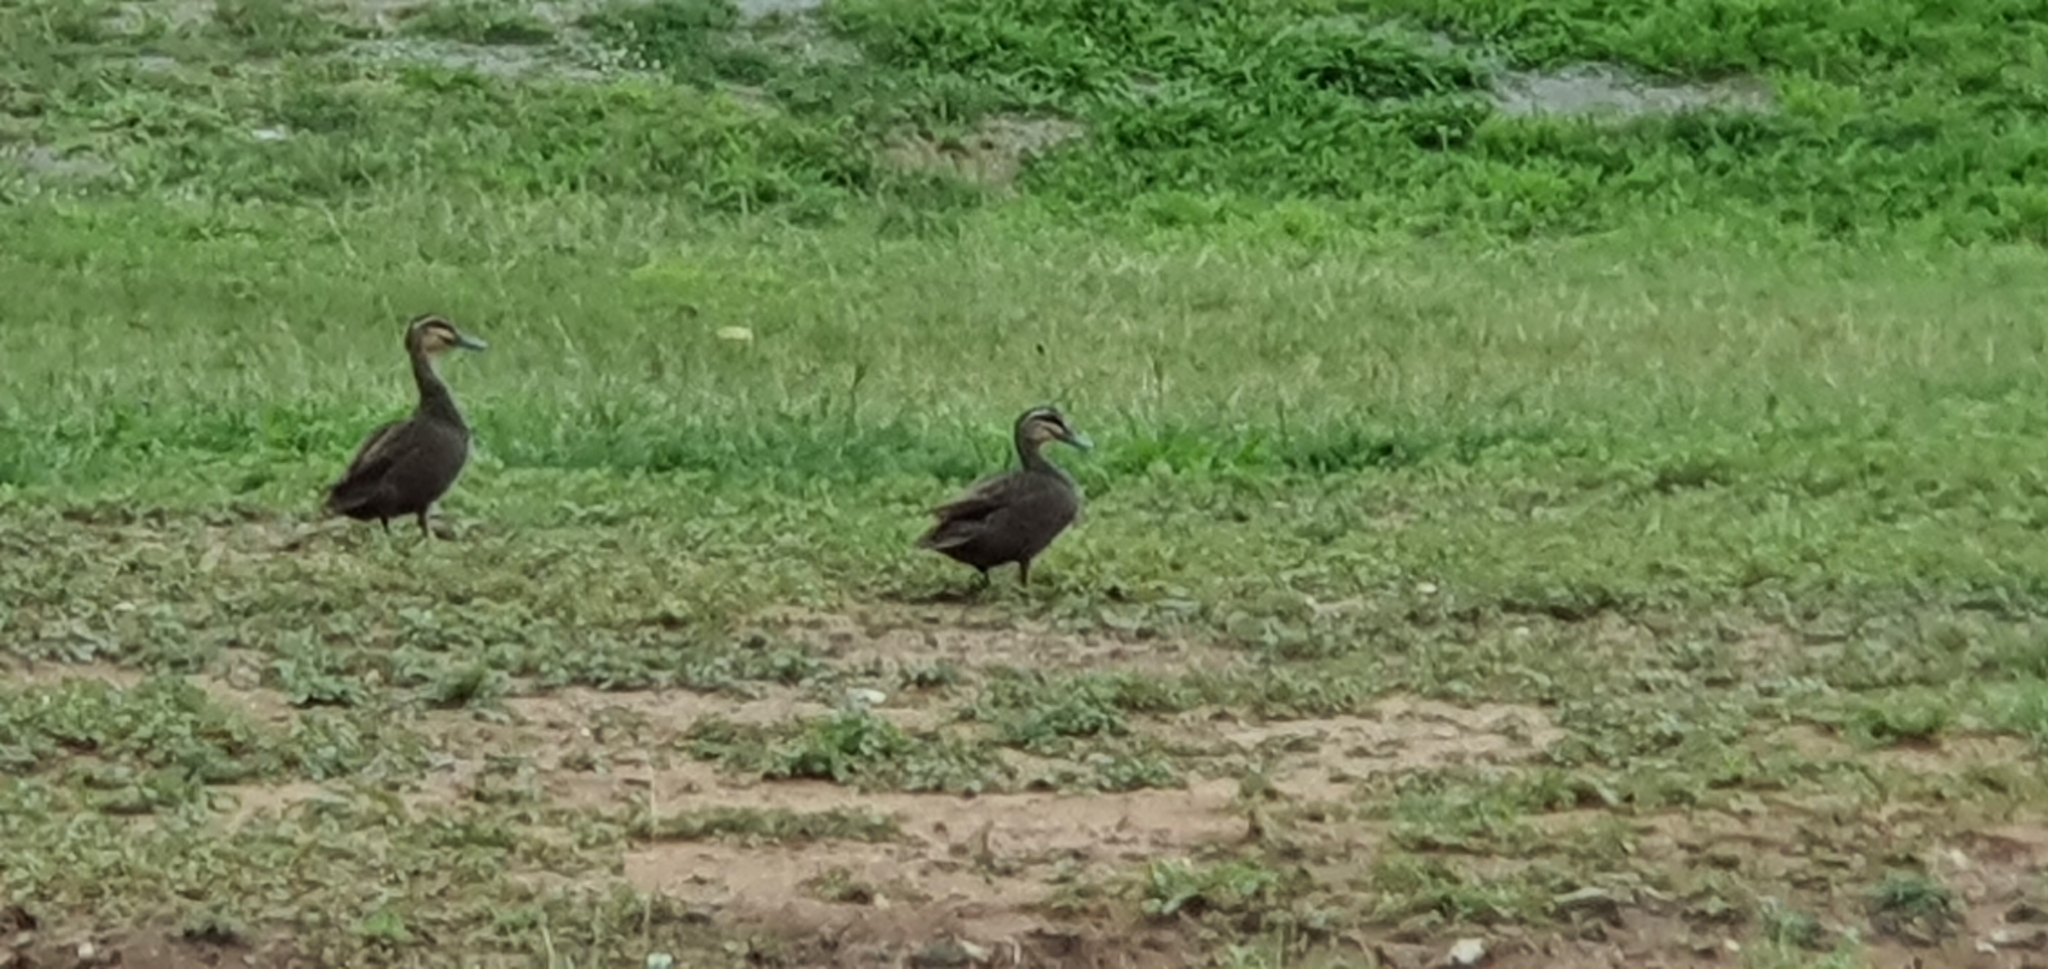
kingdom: Animalia
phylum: Chordata
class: Aves
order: Anseriformes
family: Anatidae
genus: Anas
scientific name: Anas superciliosa
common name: Pacific black duck
